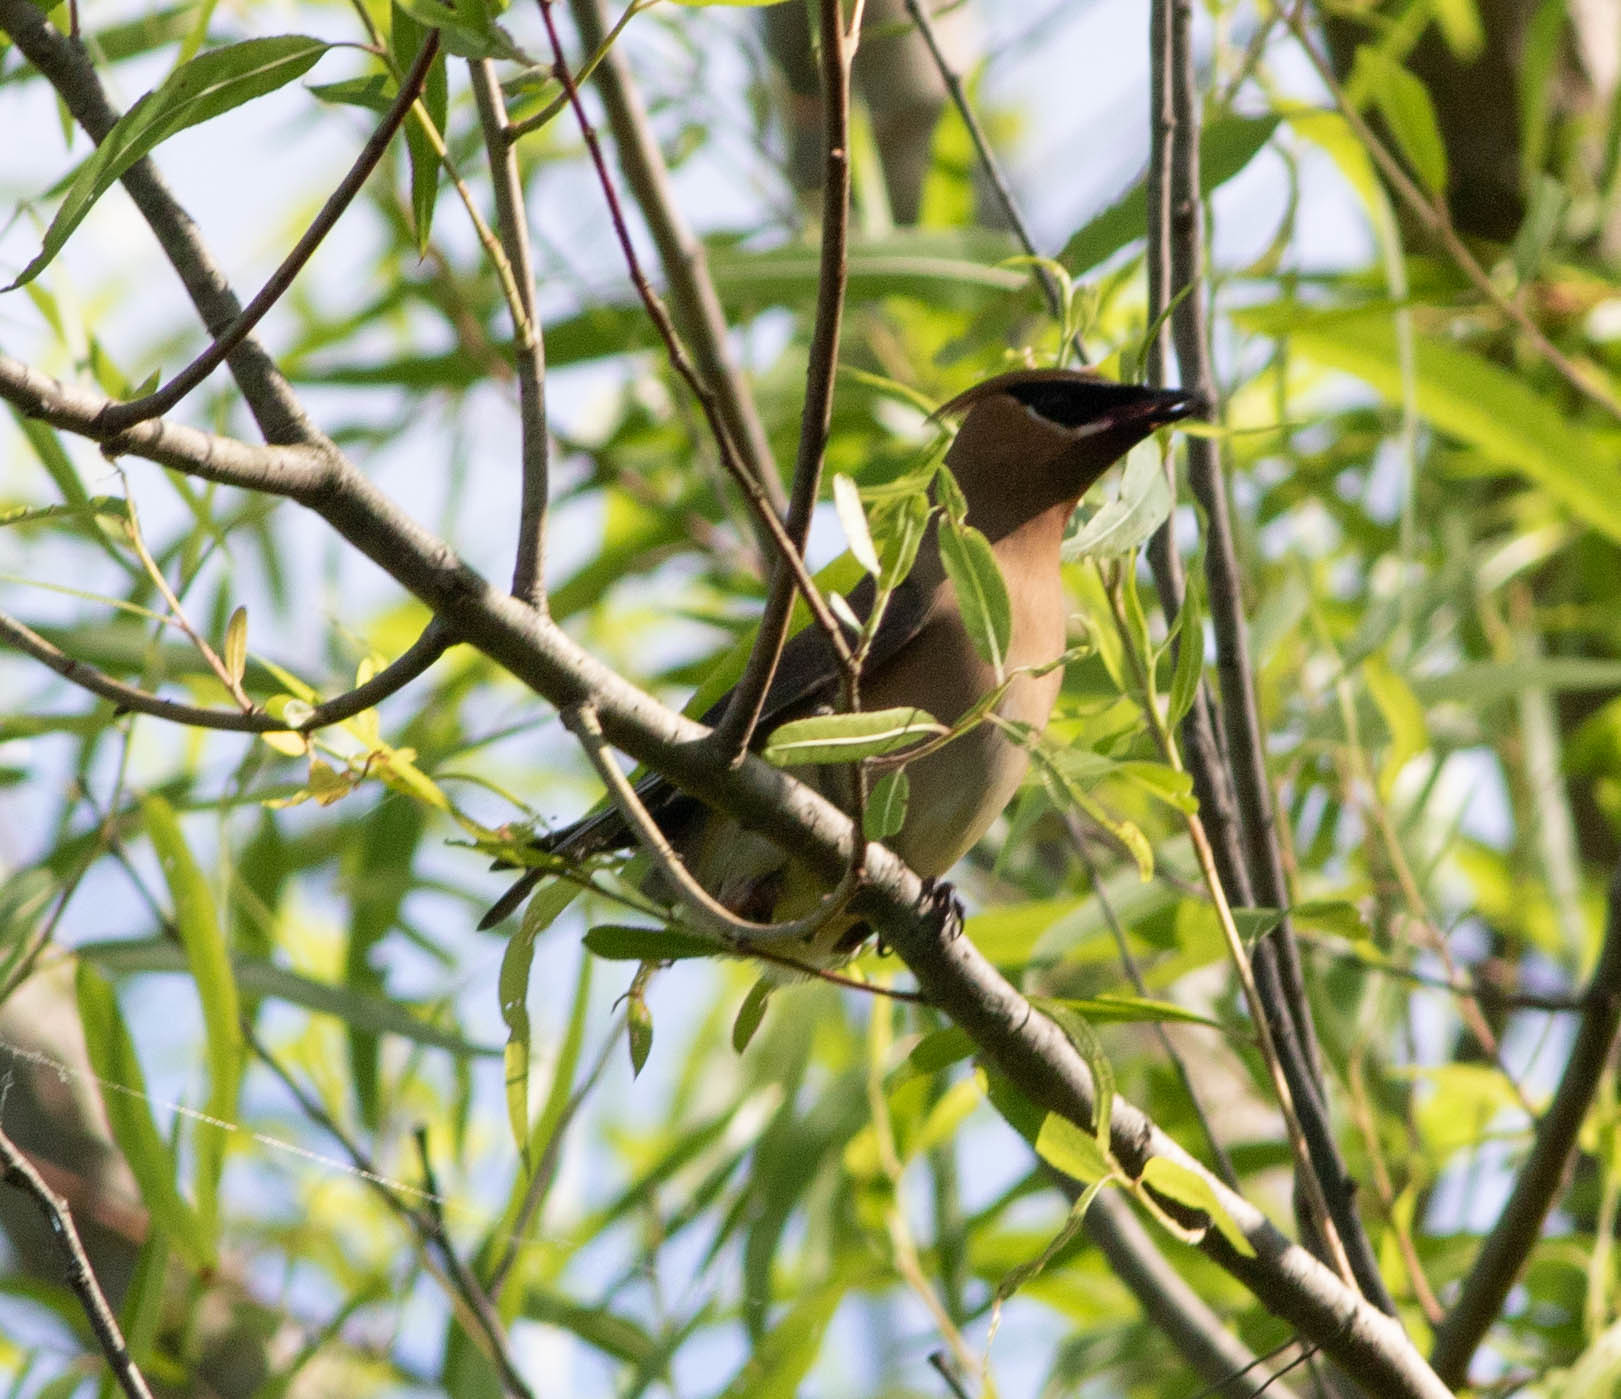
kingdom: Animalia
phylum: Chordata
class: Aves
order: Passeriformes
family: Bombycillidae
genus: Bombycilla
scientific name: Bombycilla cedrorum
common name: Cedar waxwing
